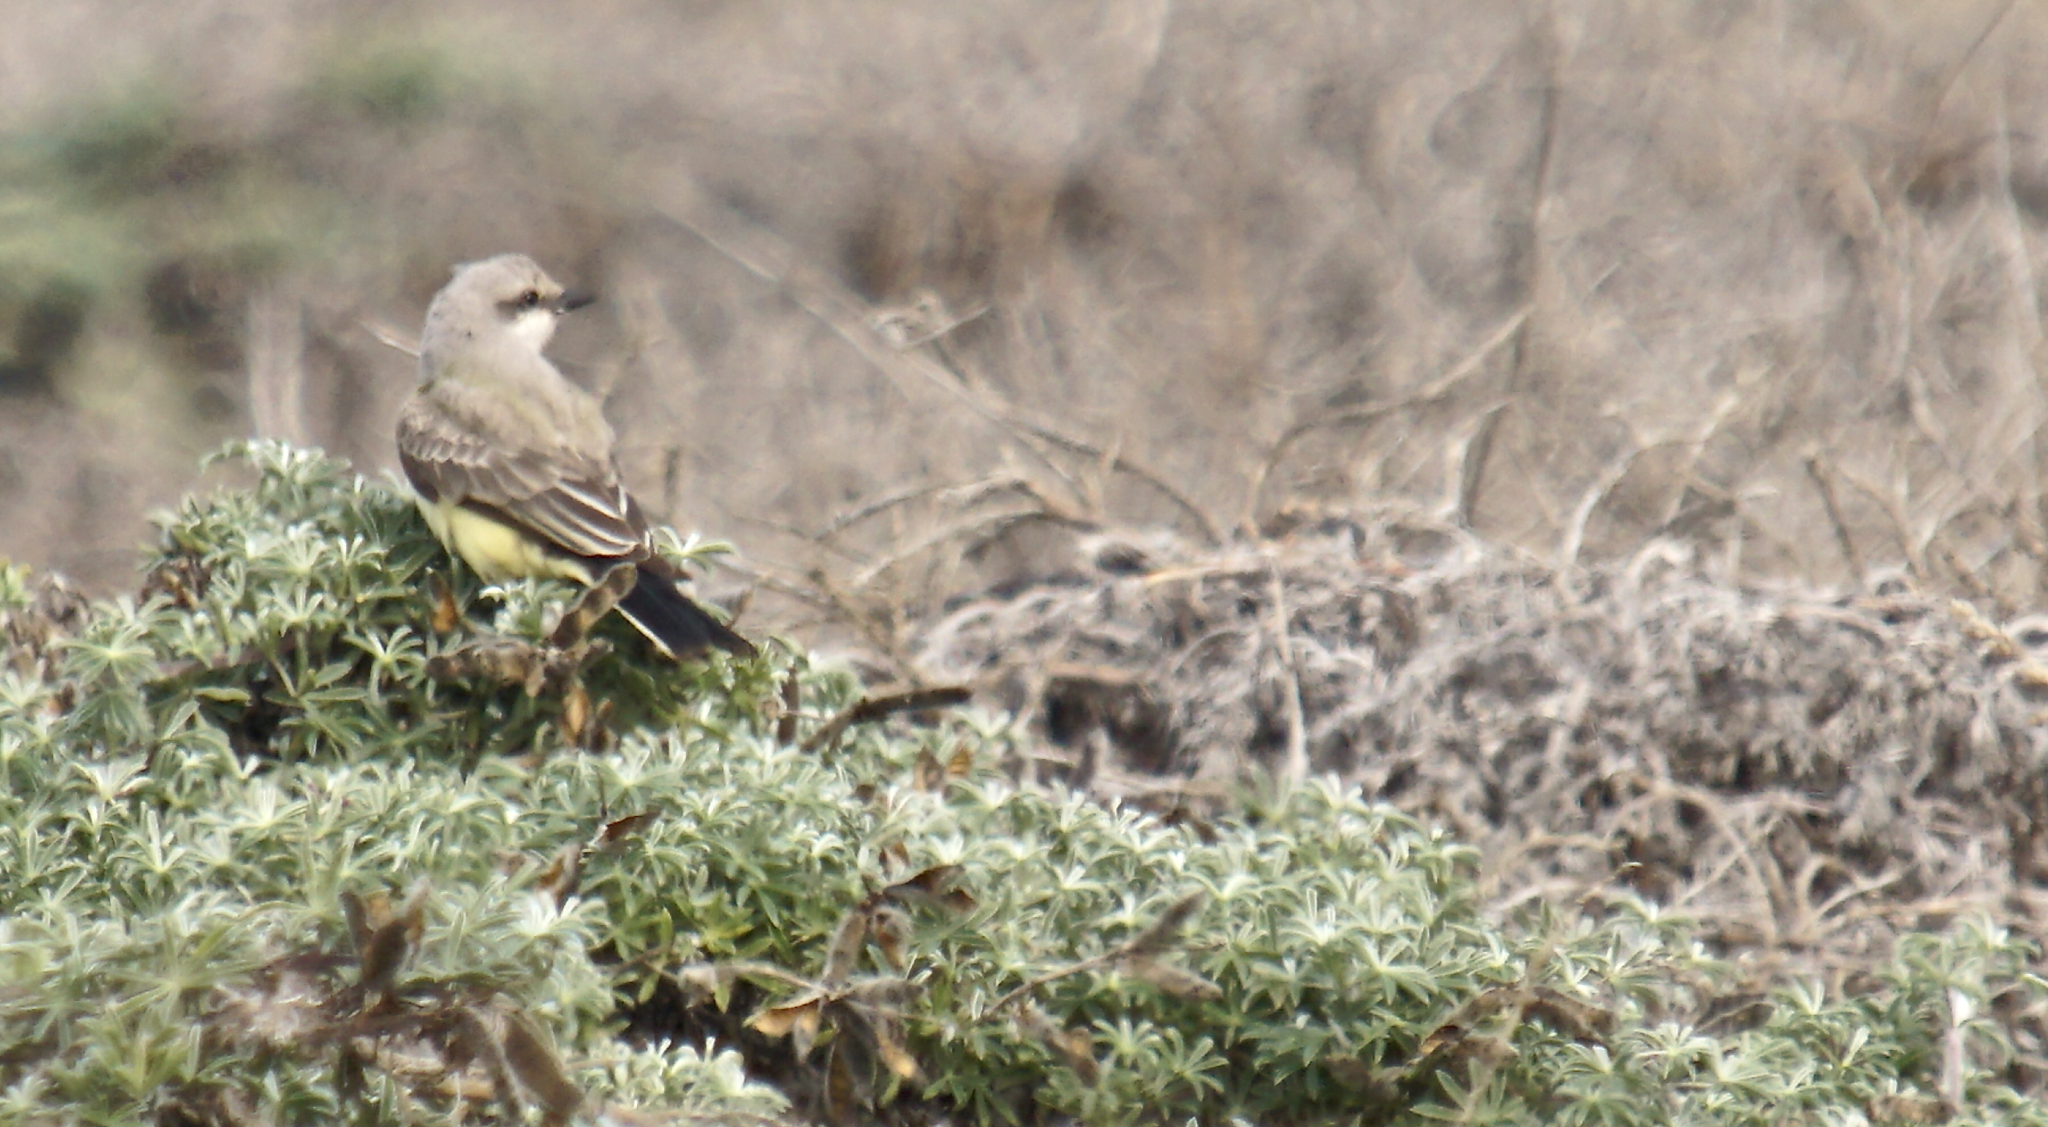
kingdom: Animalia
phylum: Chordata
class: Aves
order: Passeriformes
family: Tyrannidae
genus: Tyrannus
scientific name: Tyrannus verticalis
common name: Western kingbird
